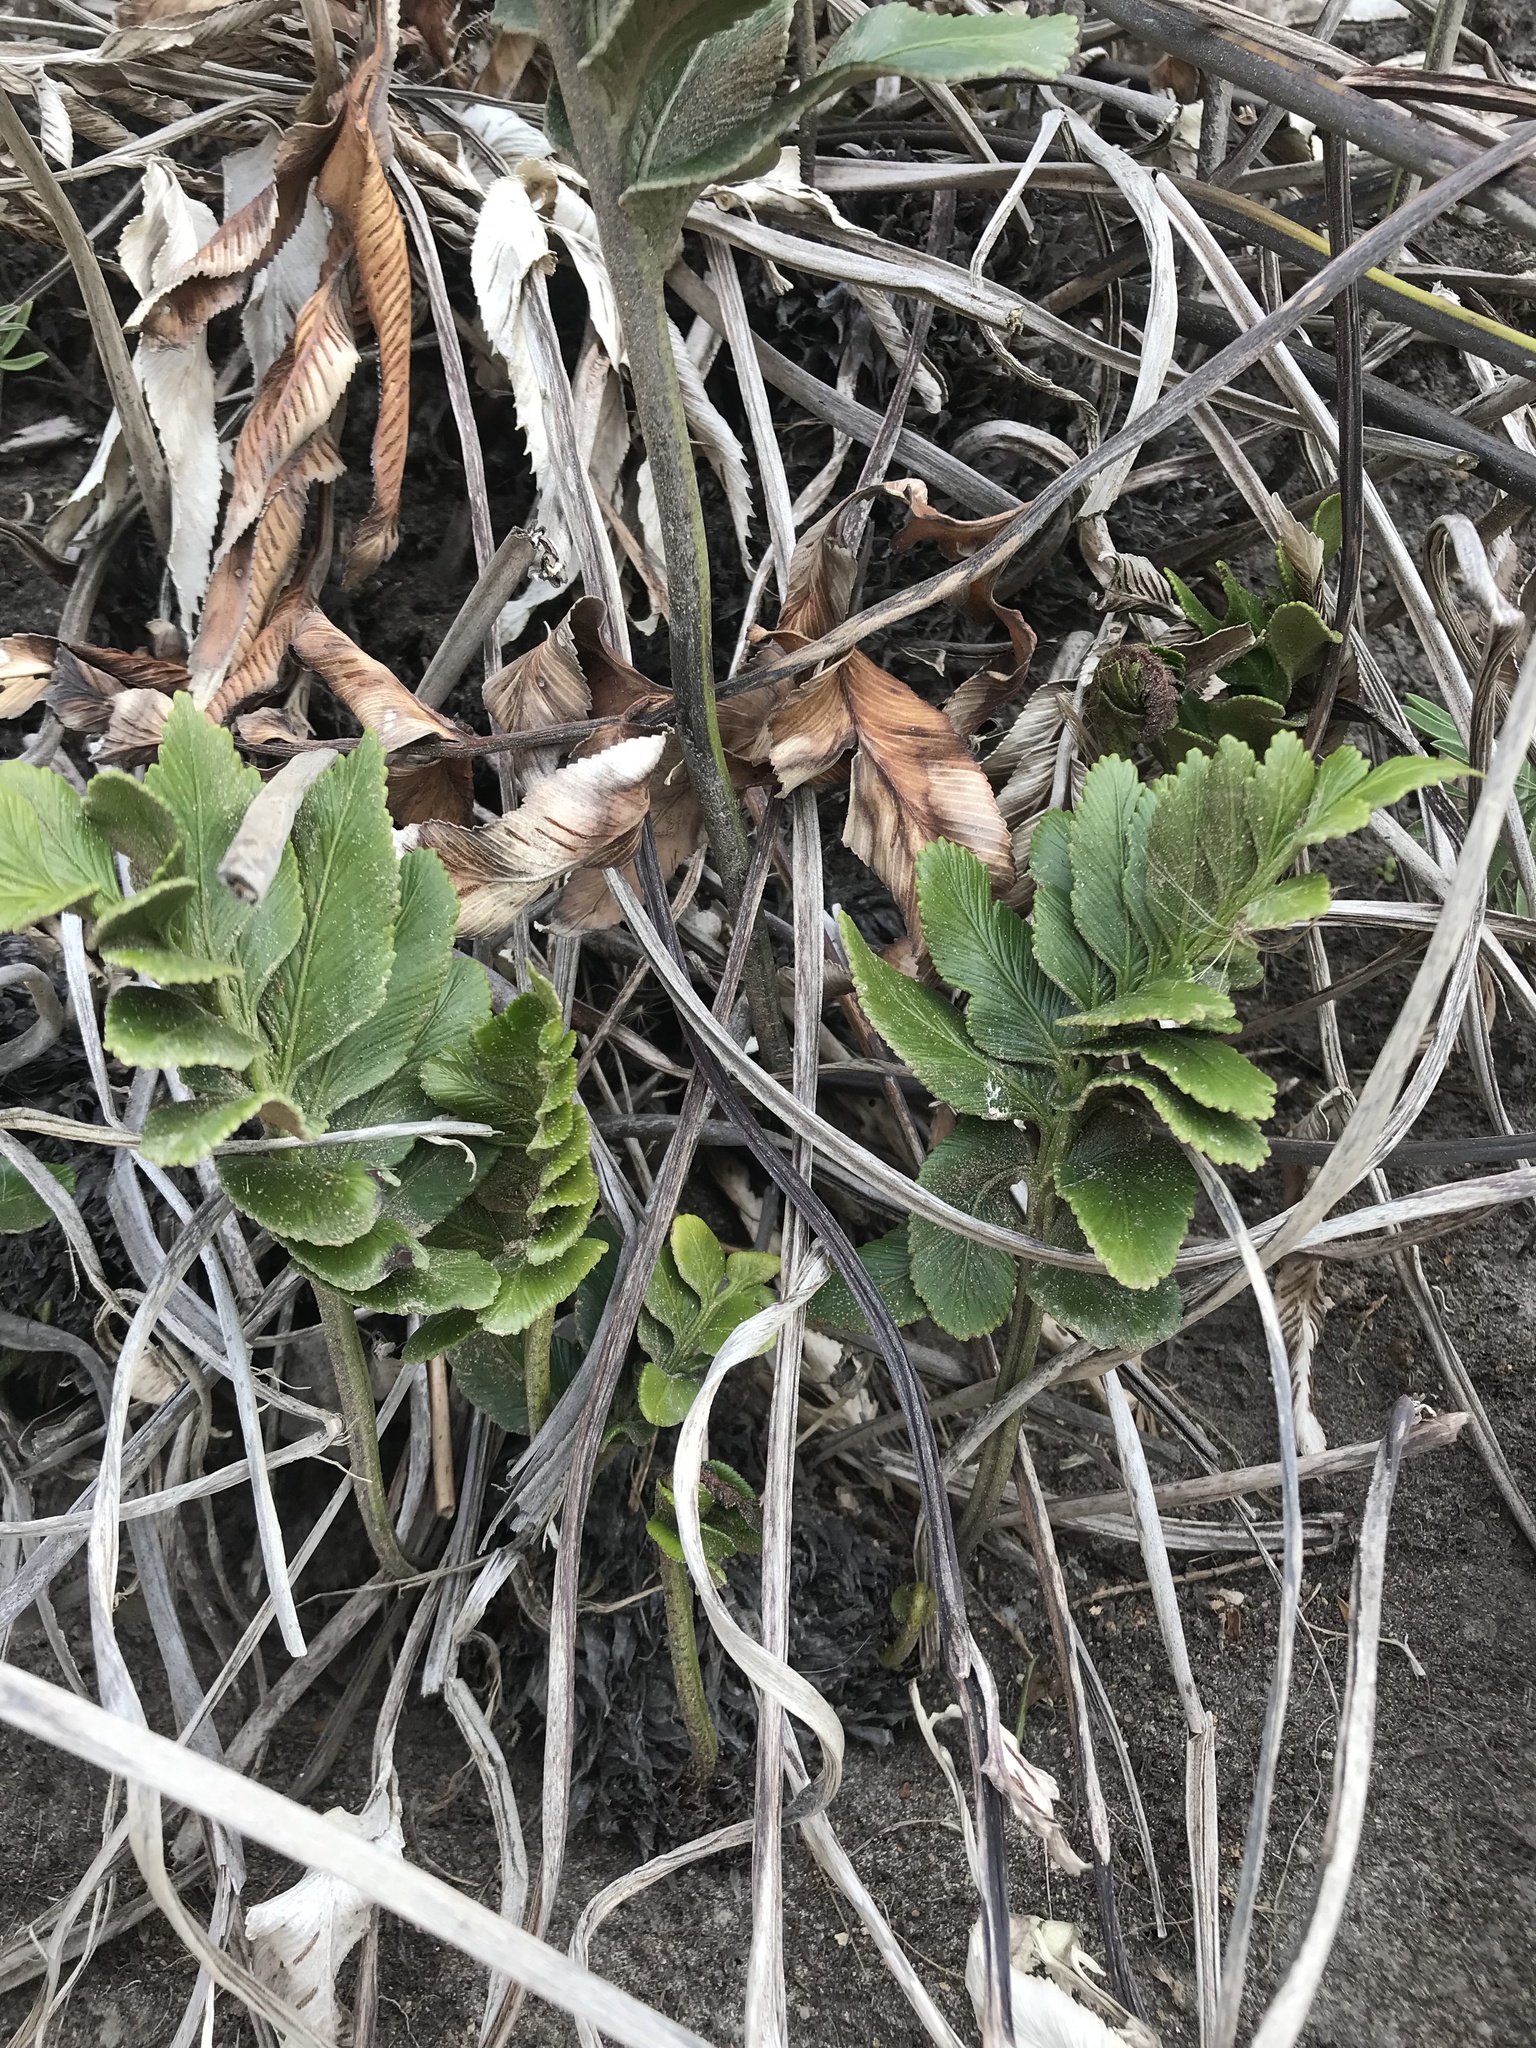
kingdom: Plantae
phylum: Tracheophyta
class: Polypodiopsida
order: Polypodiales
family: Aspleniaceae
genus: Asplenium
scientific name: Asplenium obtusatum
